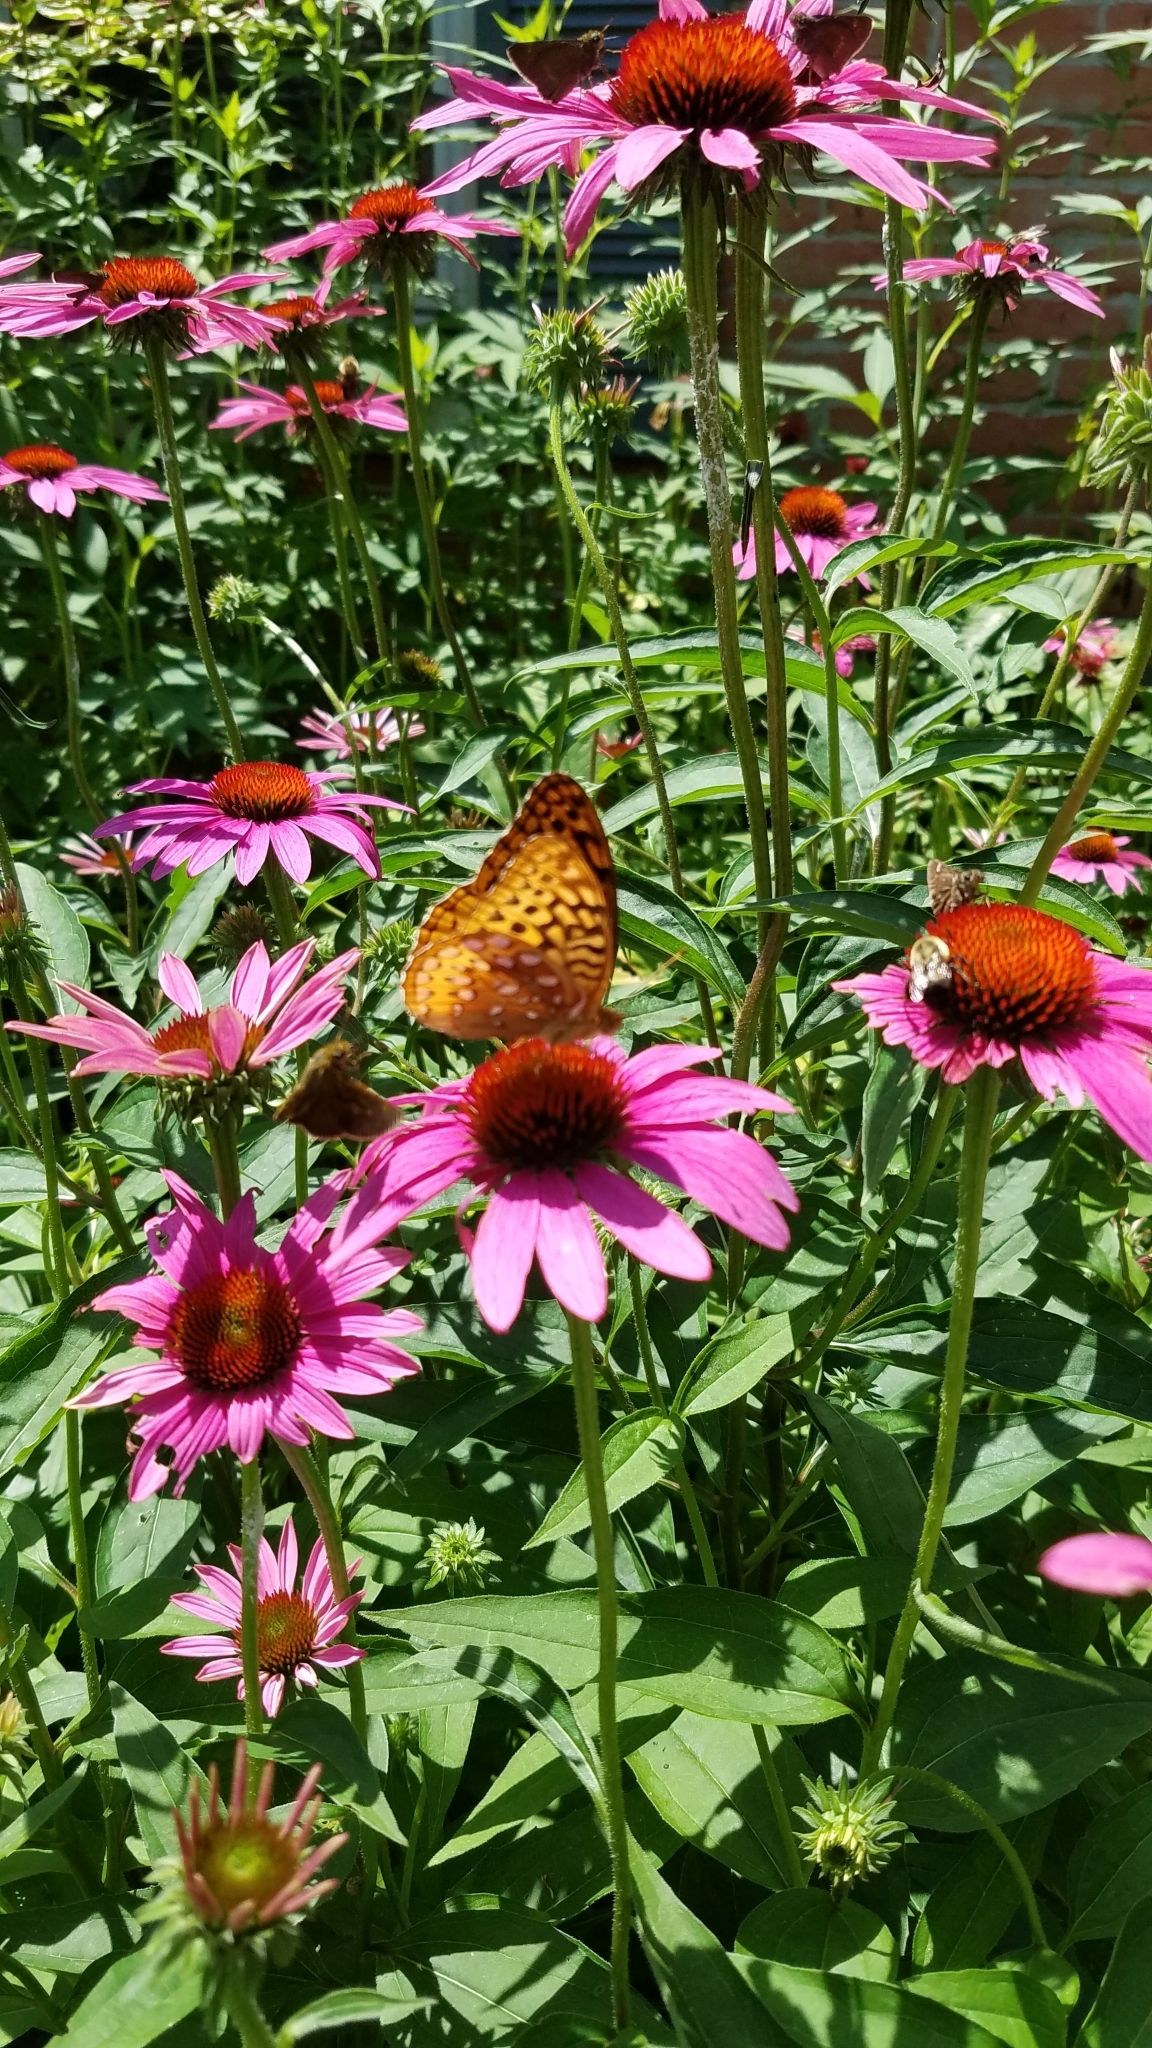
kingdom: Animalia
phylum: Arthropoda
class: Insecta
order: Lepidoptera
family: Nymphalidae
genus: Speyeria
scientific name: Speyeria cybele
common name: Great spangled fritillary
